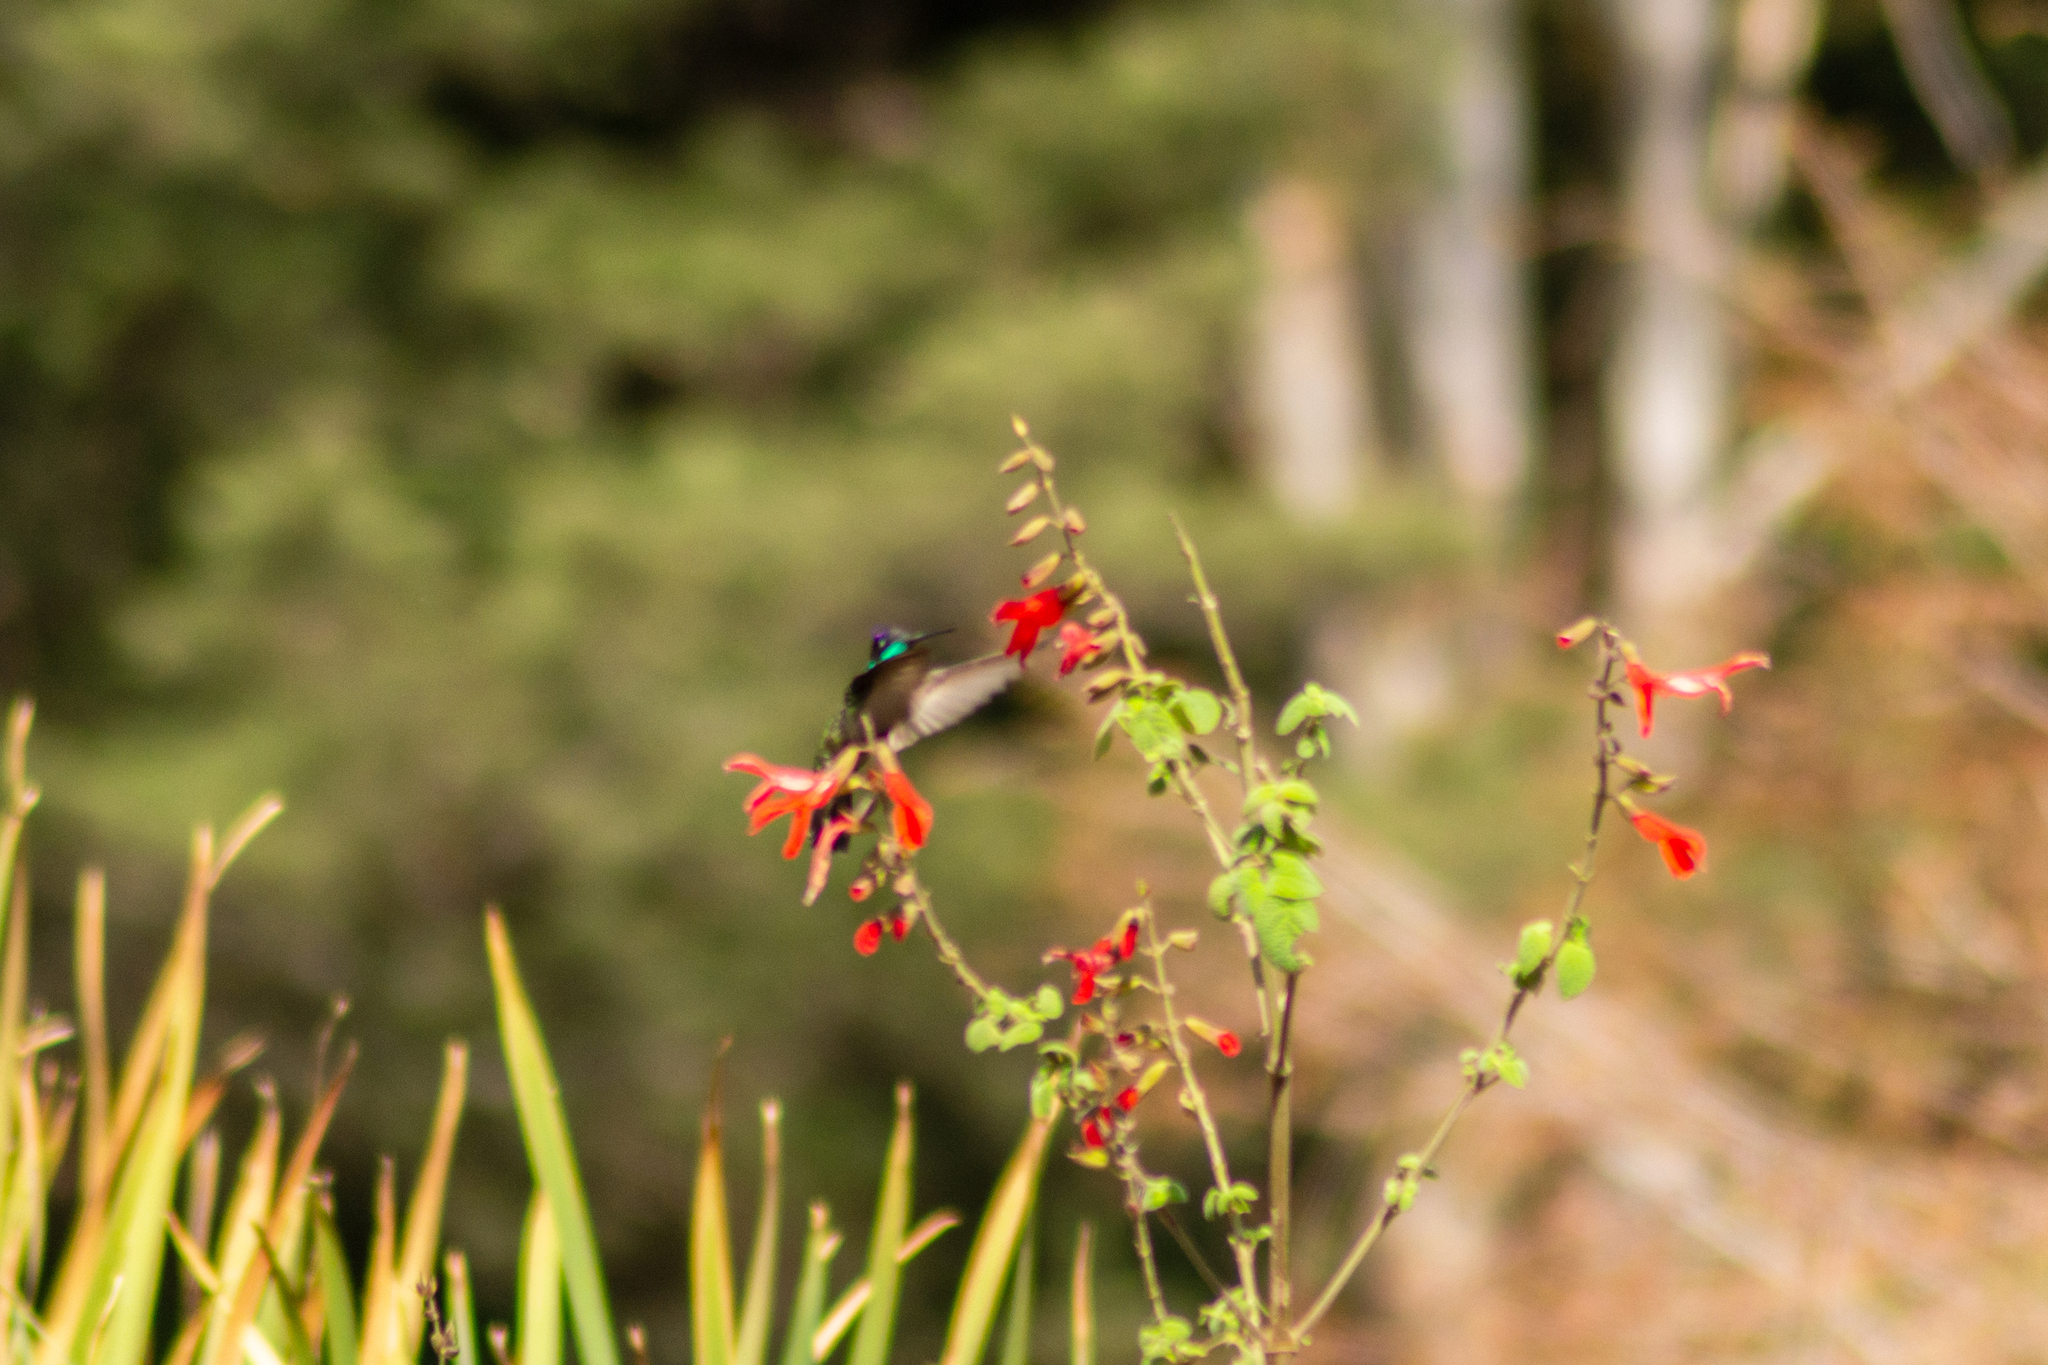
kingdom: Animalia
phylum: Chordata
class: Aves
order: Apodiformes
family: Trochilidae
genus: Eugenes
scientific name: Eugenes fulgens
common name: Magnificent hummingbird
